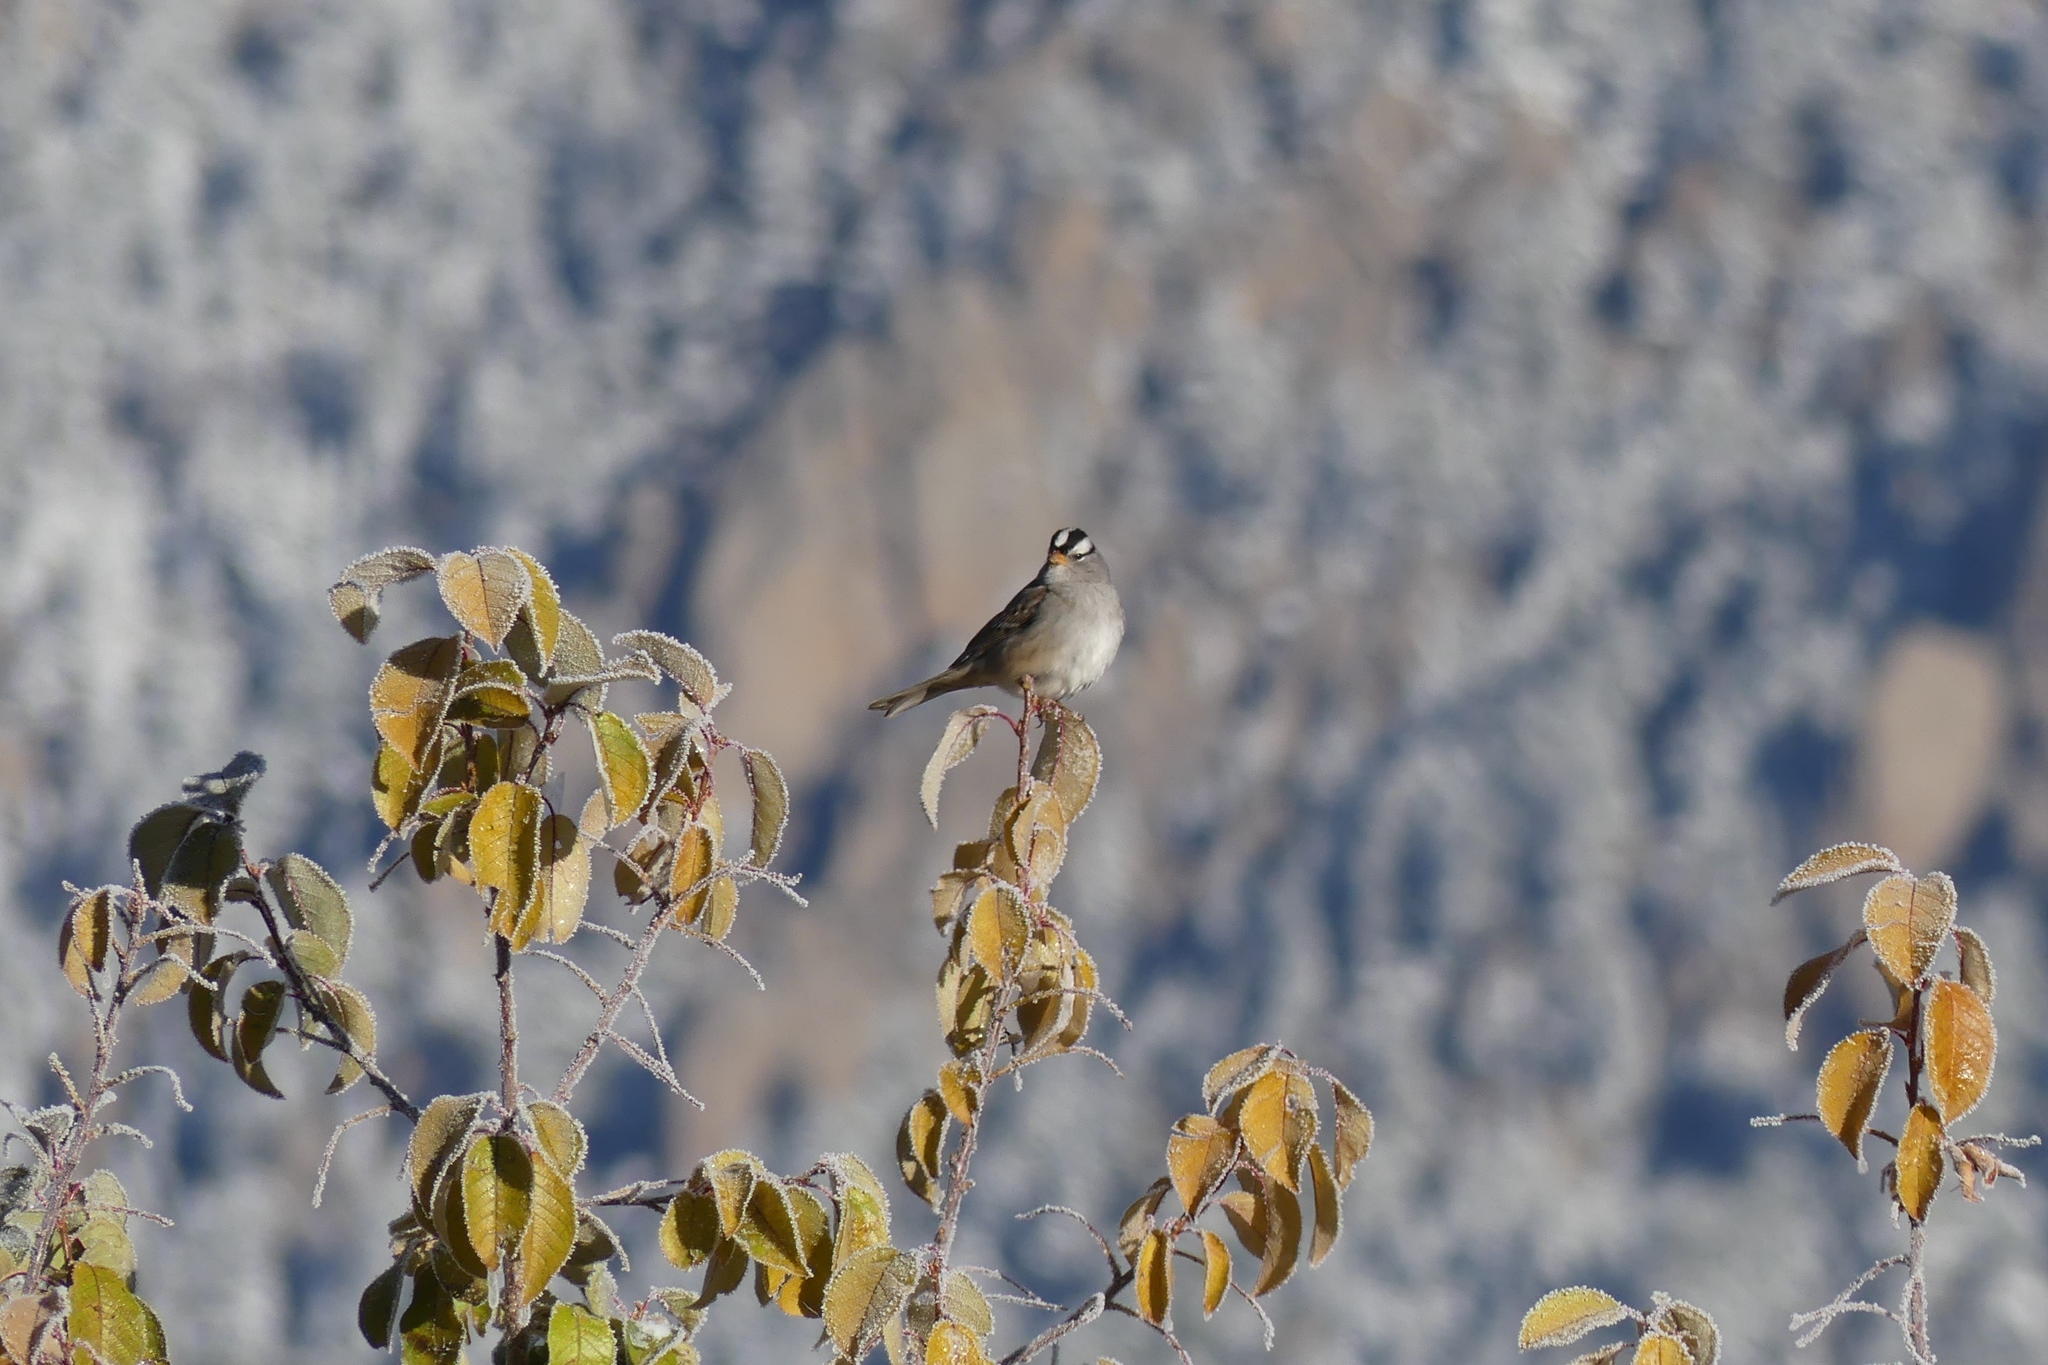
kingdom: Animalia
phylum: Chordata
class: Aves
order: Passeriformes
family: Passerellidae
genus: Zonotrichia
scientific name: Zonotrichia leucophrys
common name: White-crowned sparrow
